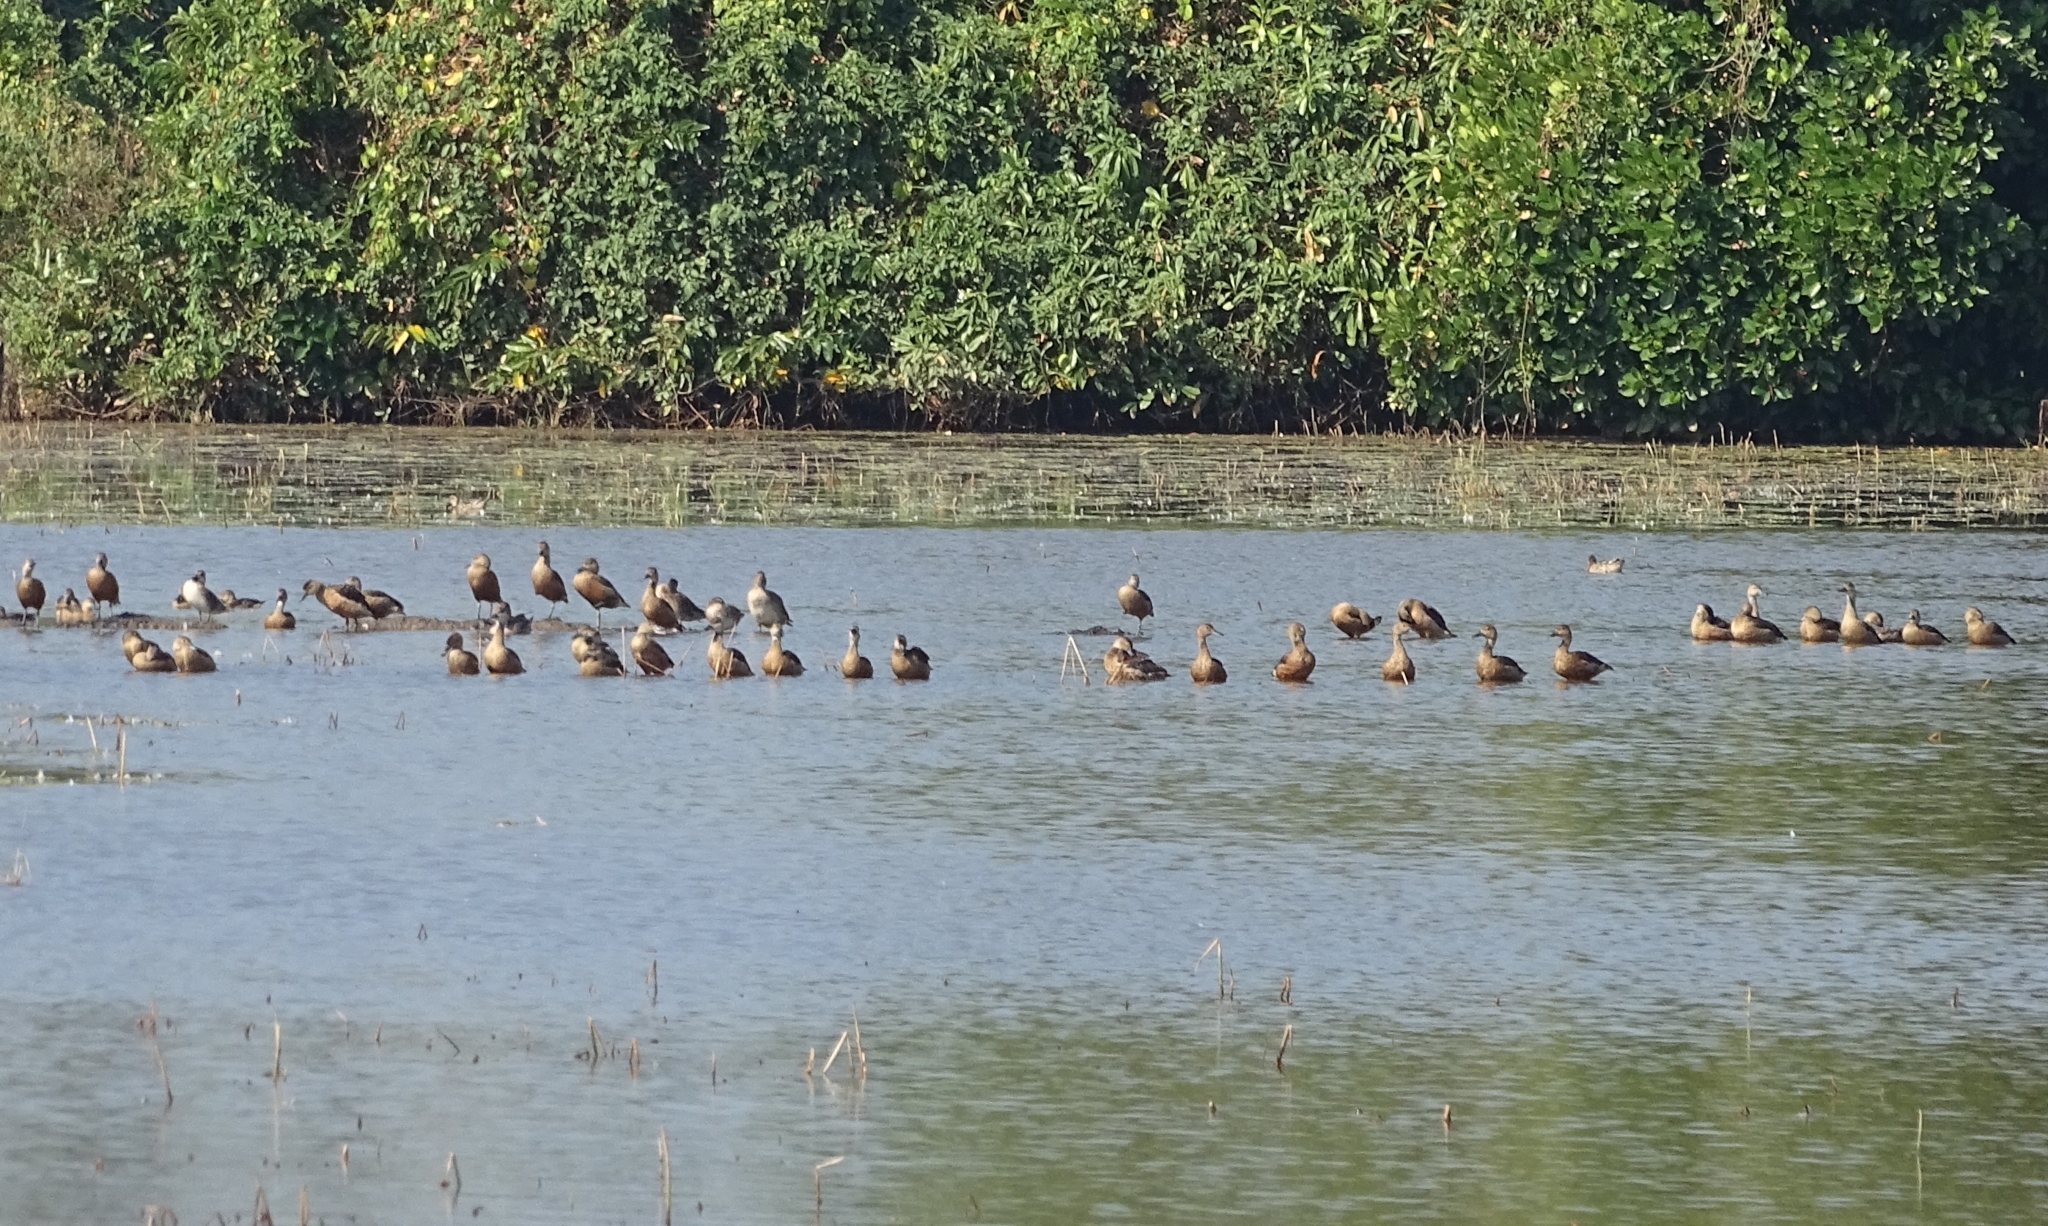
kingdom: Animalia
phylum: Chordata
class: Aves
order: Anseriformes
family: Anatidae
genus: Dendrocygna
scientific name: Dendrocygna javanica
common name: Lesser whistling-duck
